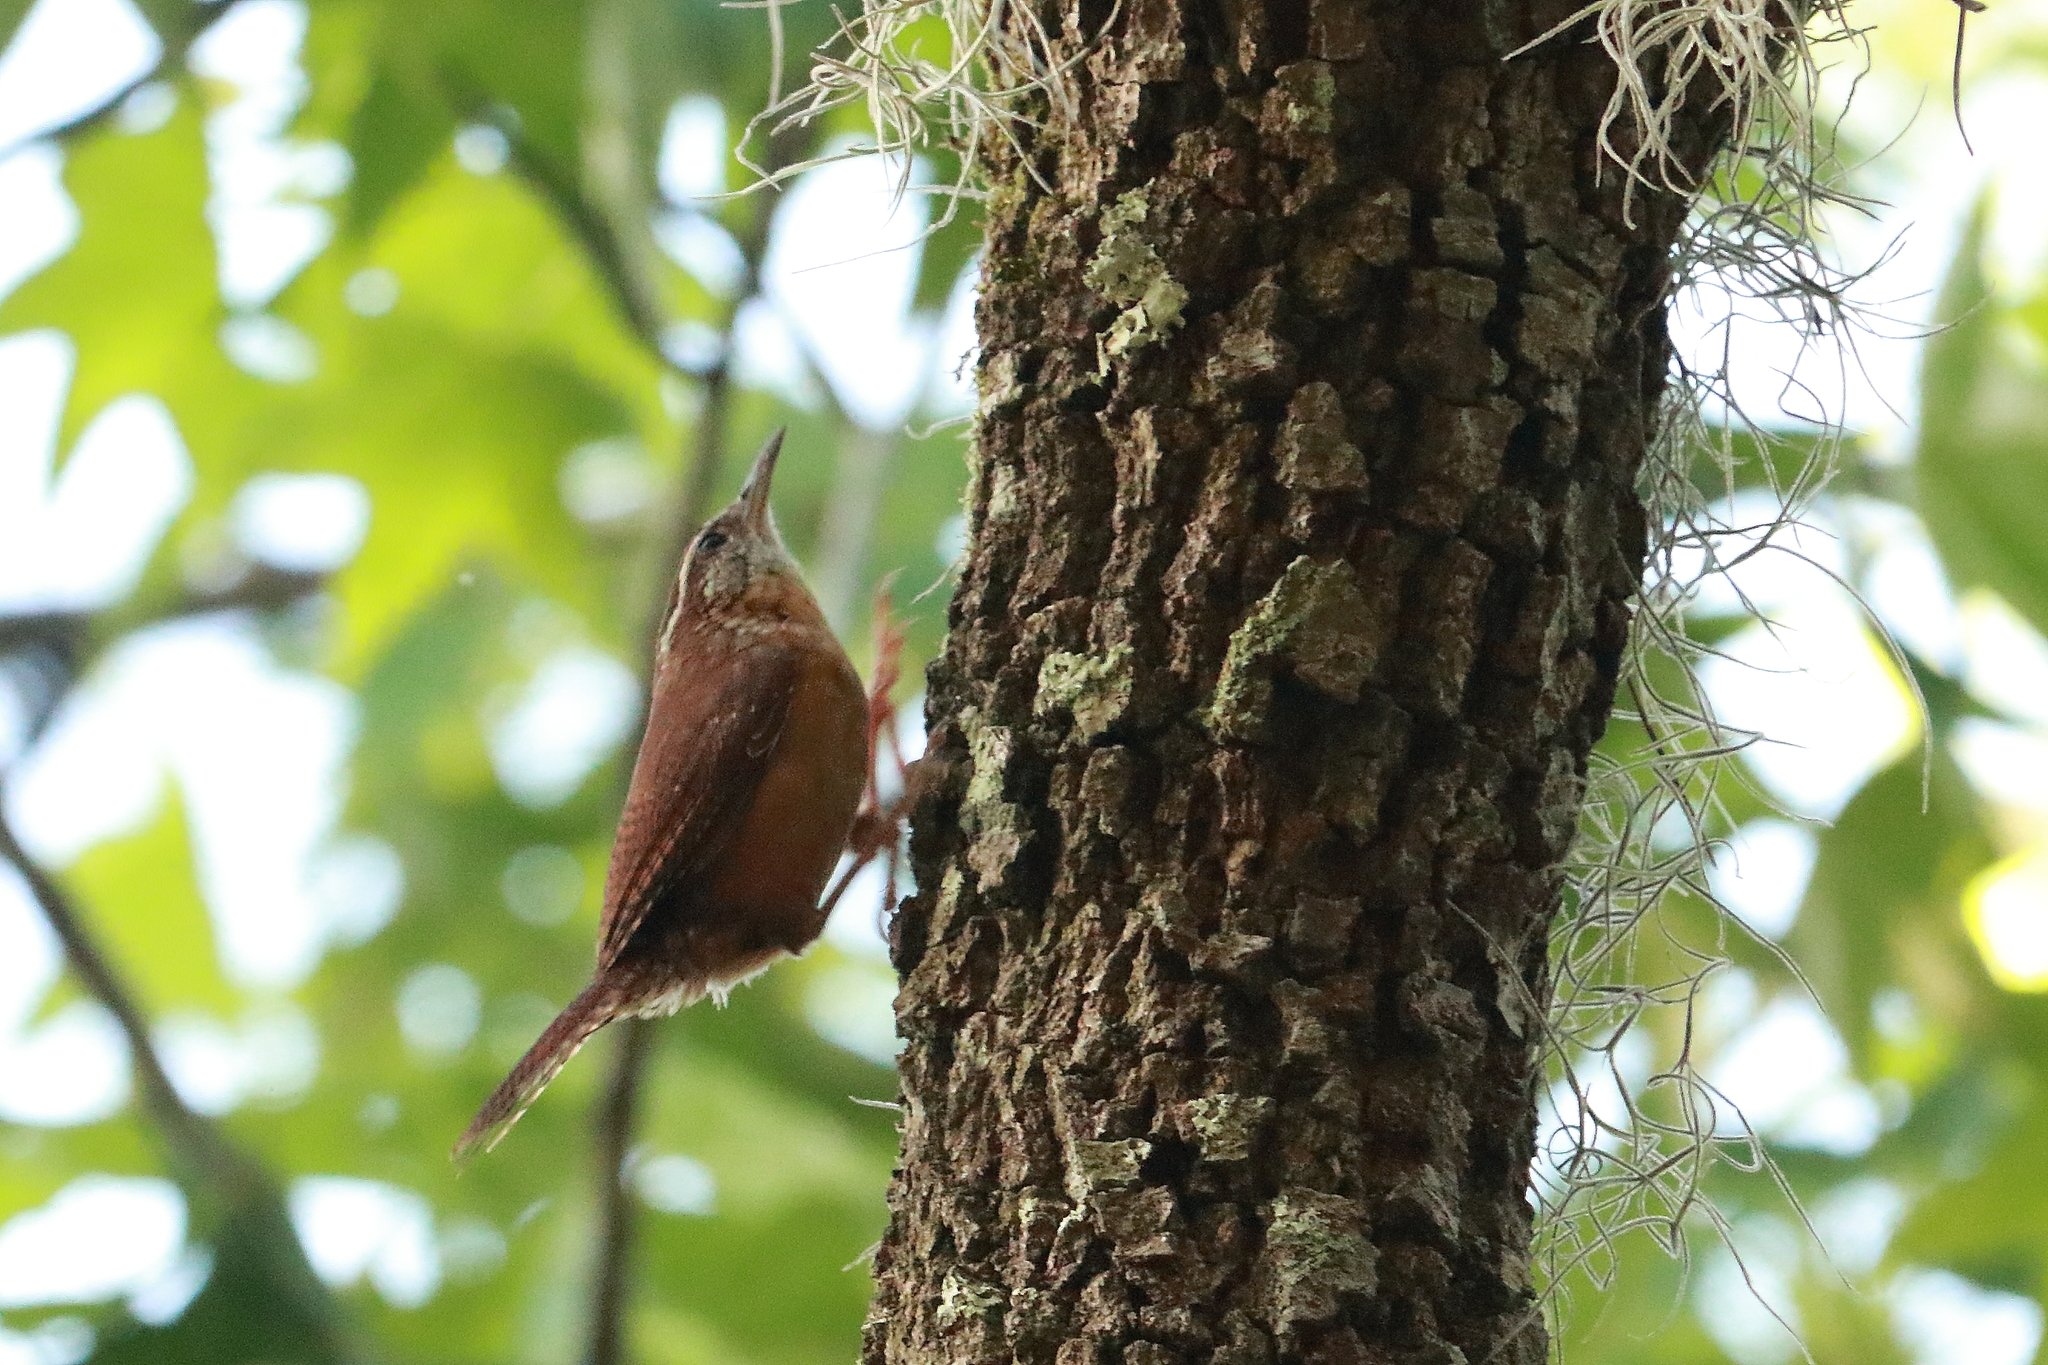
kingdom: Animalia
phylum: Chordata
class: Aves
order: Passeriformes
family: Troglodytidae
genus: Thryothorus
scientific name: Thryothorus ludovicianus
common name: Carolina wren
